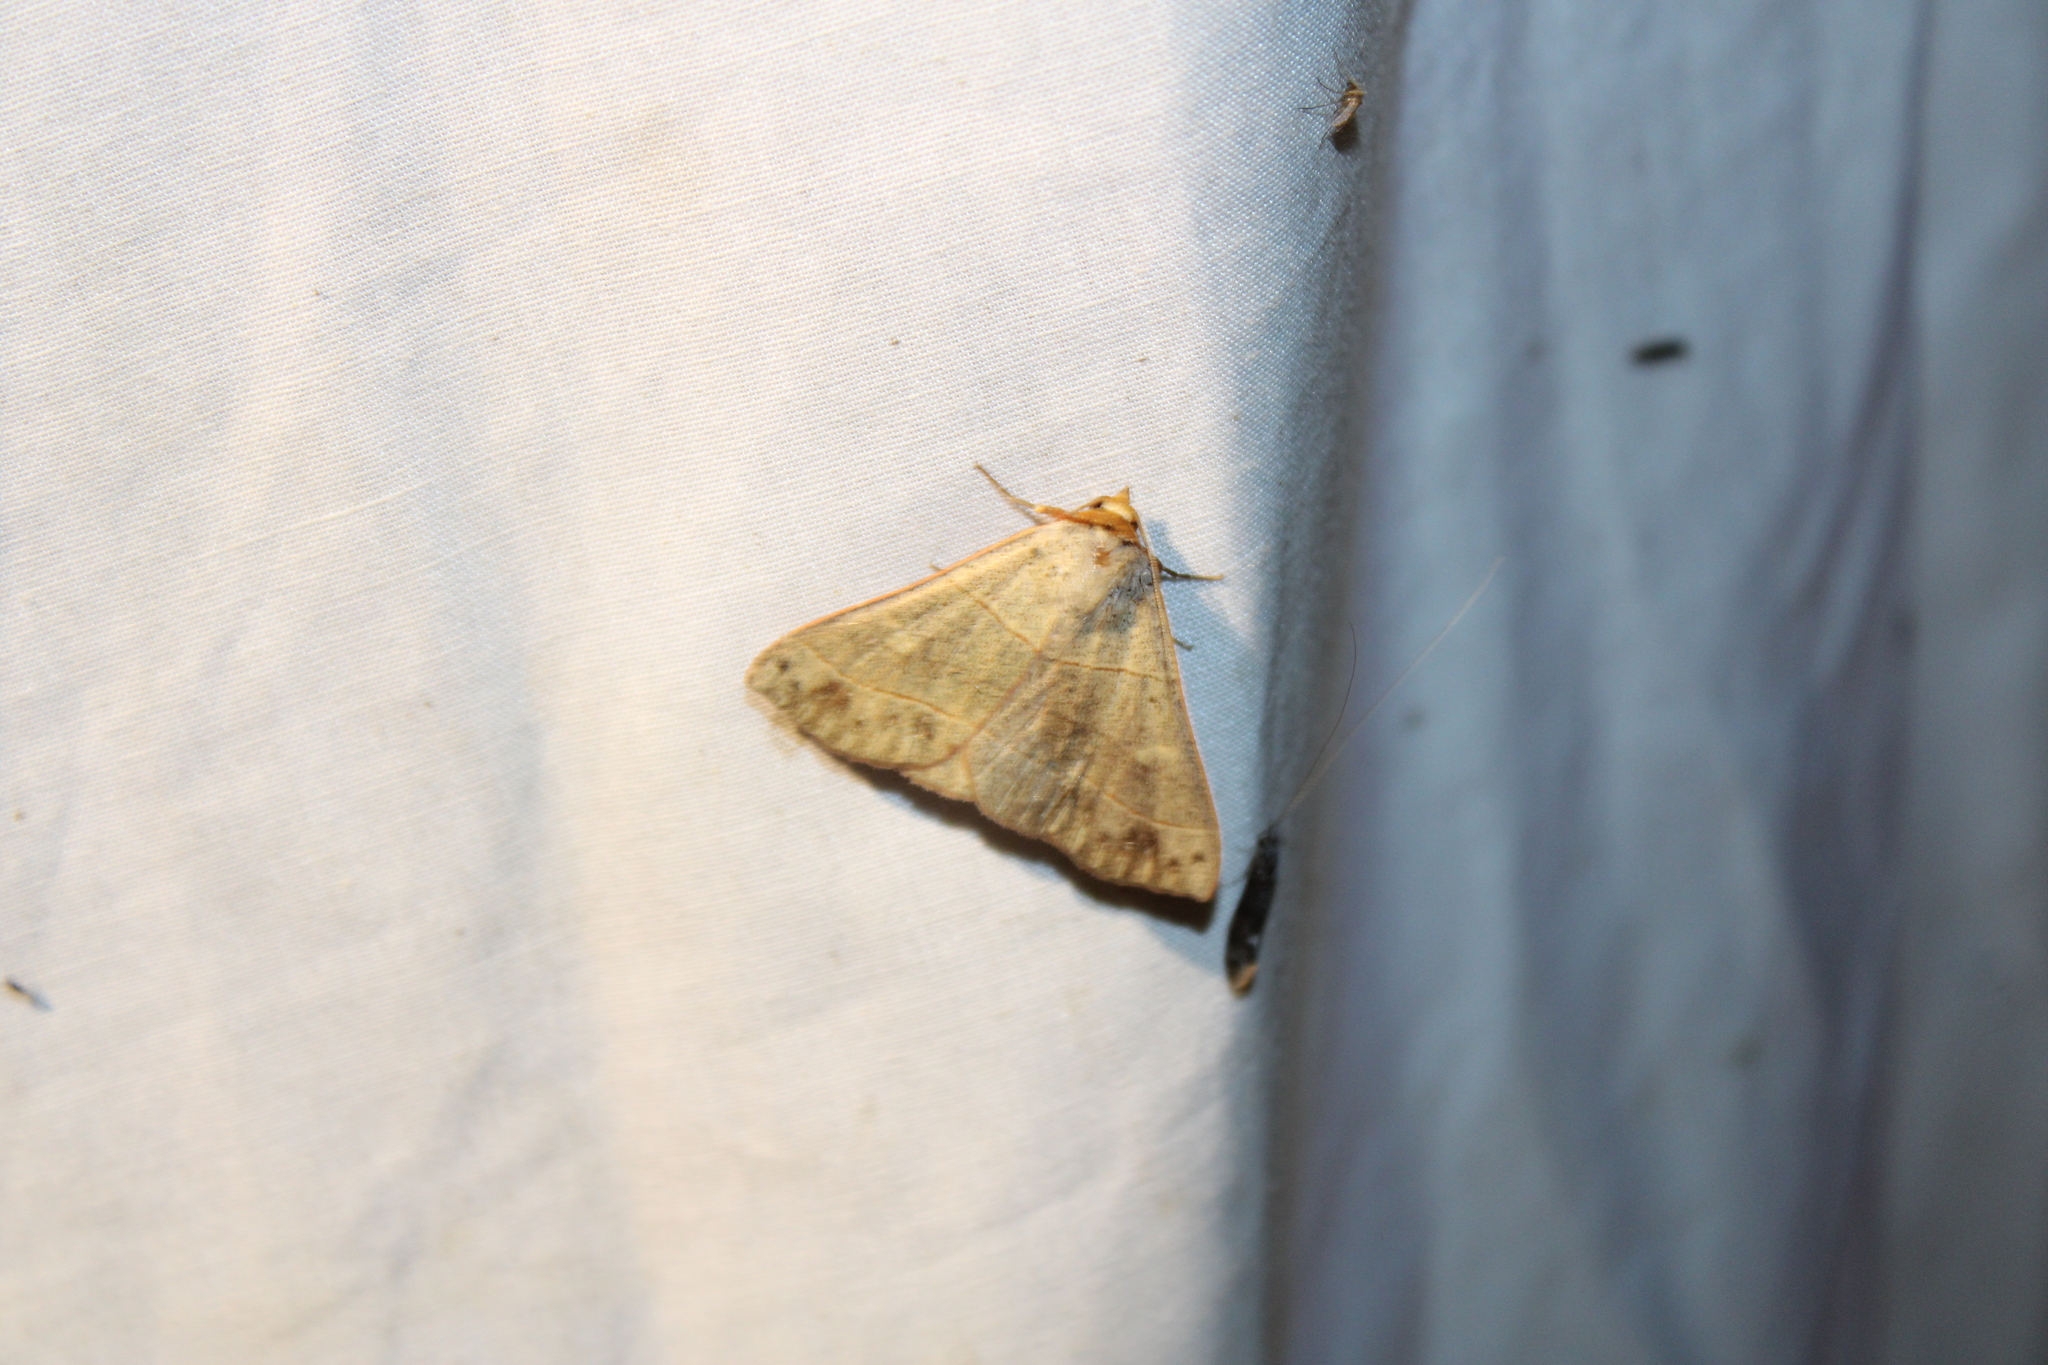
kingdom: Animalia
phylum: Arthropoda
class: Insecta
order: Lepidoptera
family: Erebidae
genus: Panopoda
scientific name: Panopoda rufimargo
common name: Red-lined panopoda moth
